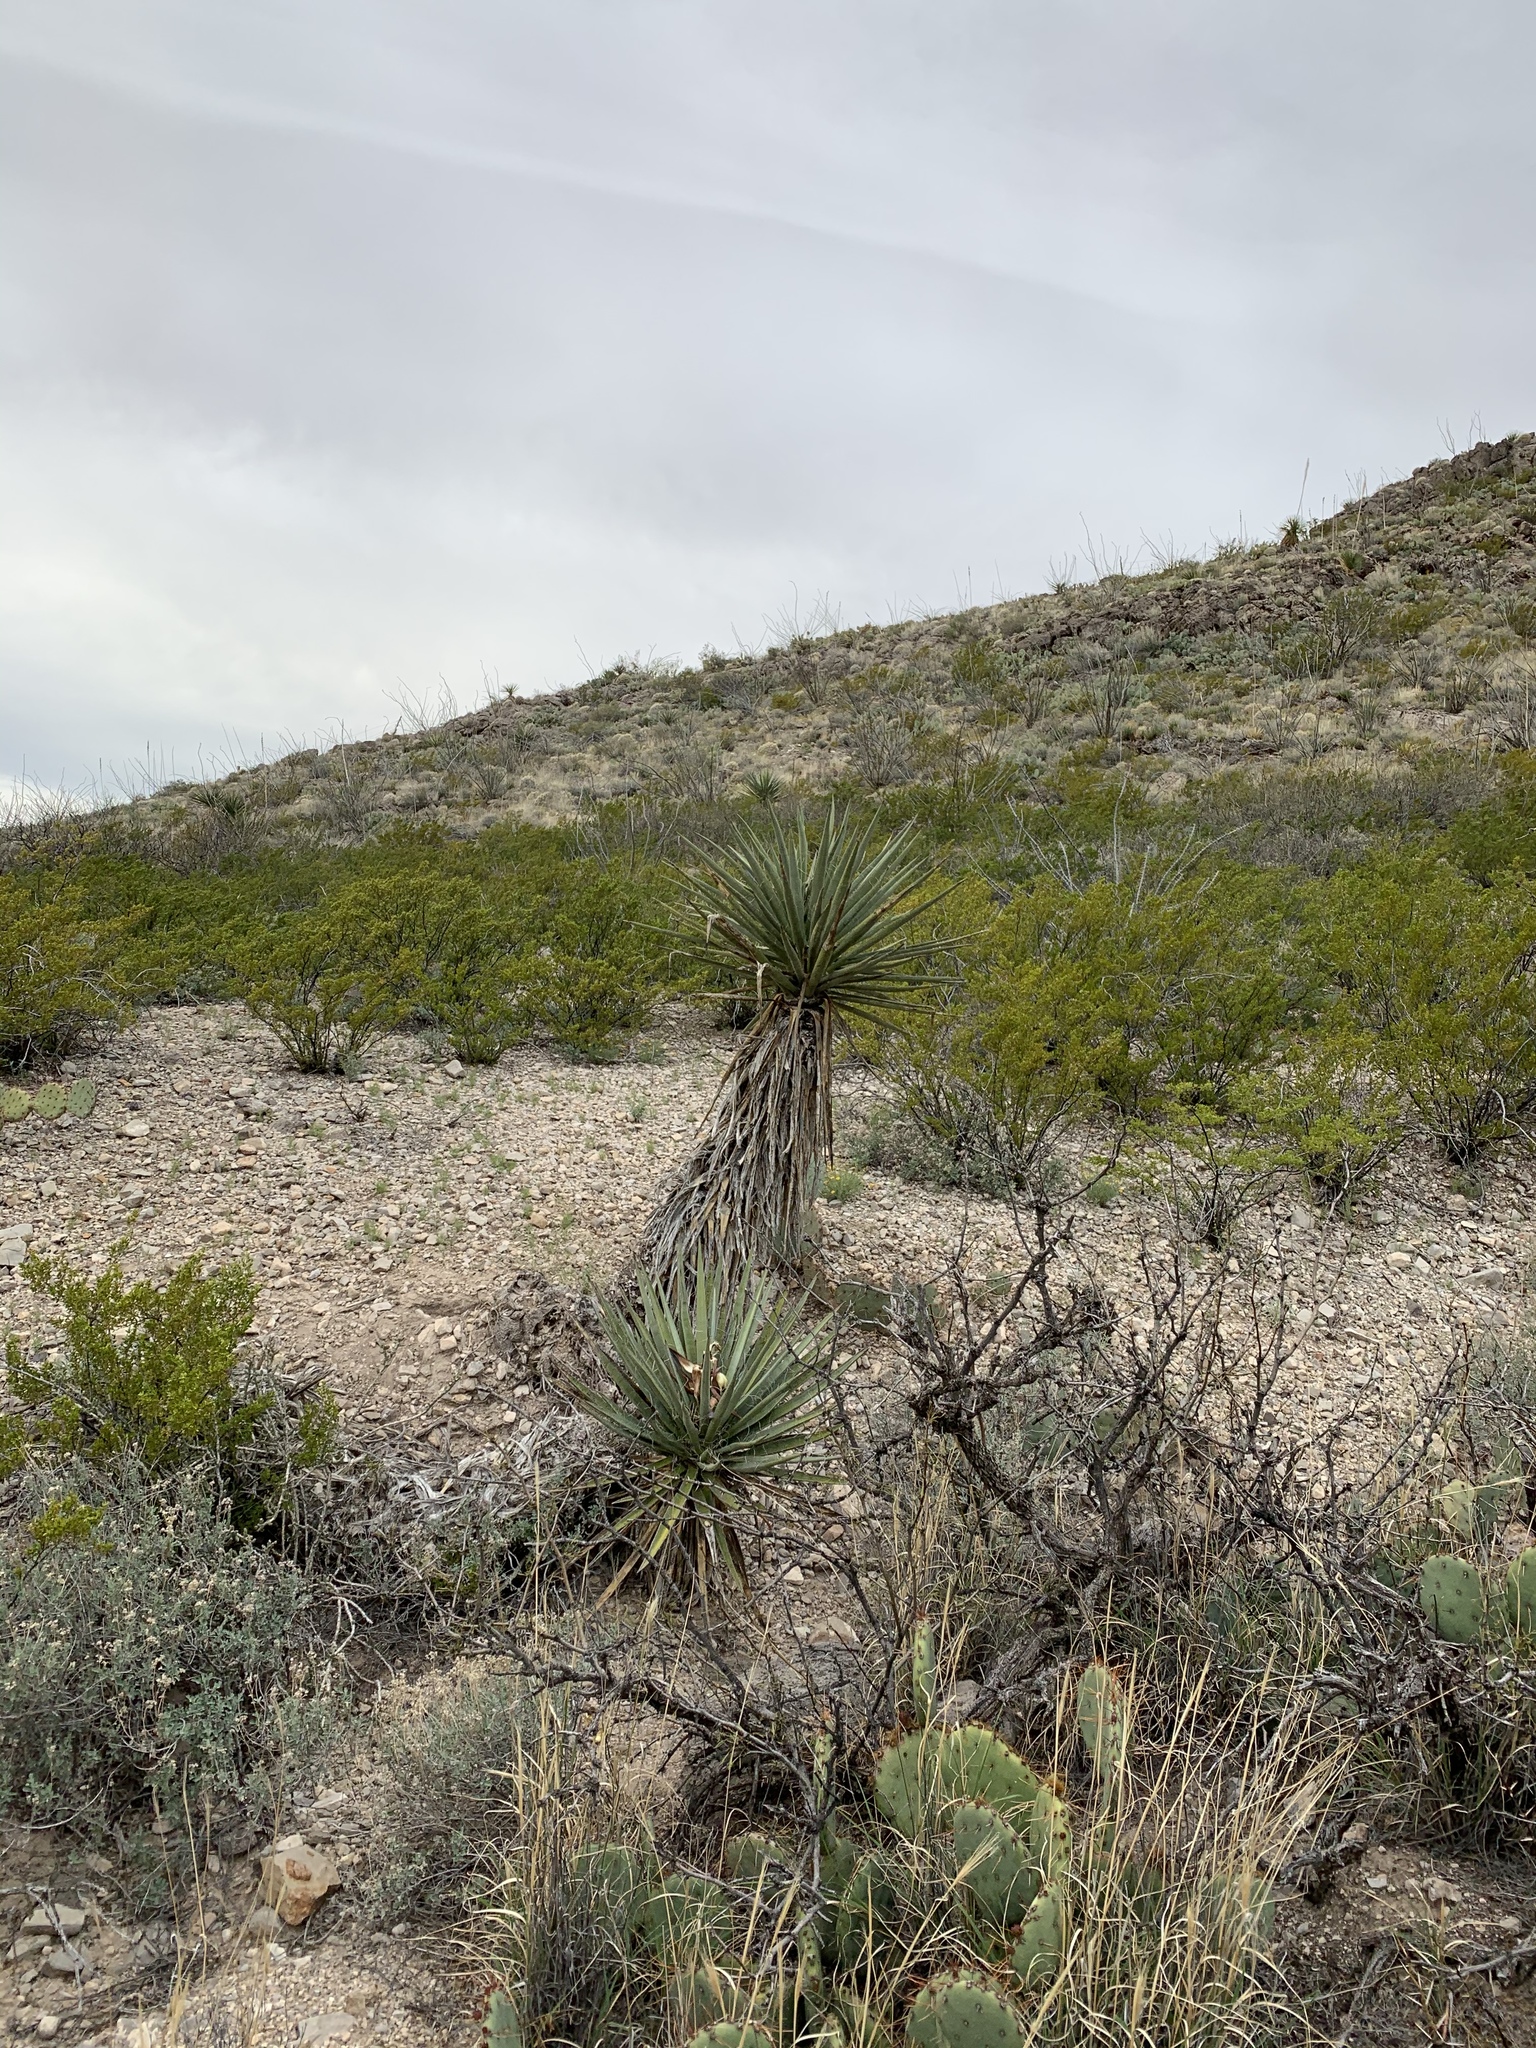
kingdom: Plantae
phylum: Tracheophyta
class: Liliopsida
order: Asparagales
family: Asparagaceae
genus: Yucca
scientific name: Yucca treculiana
